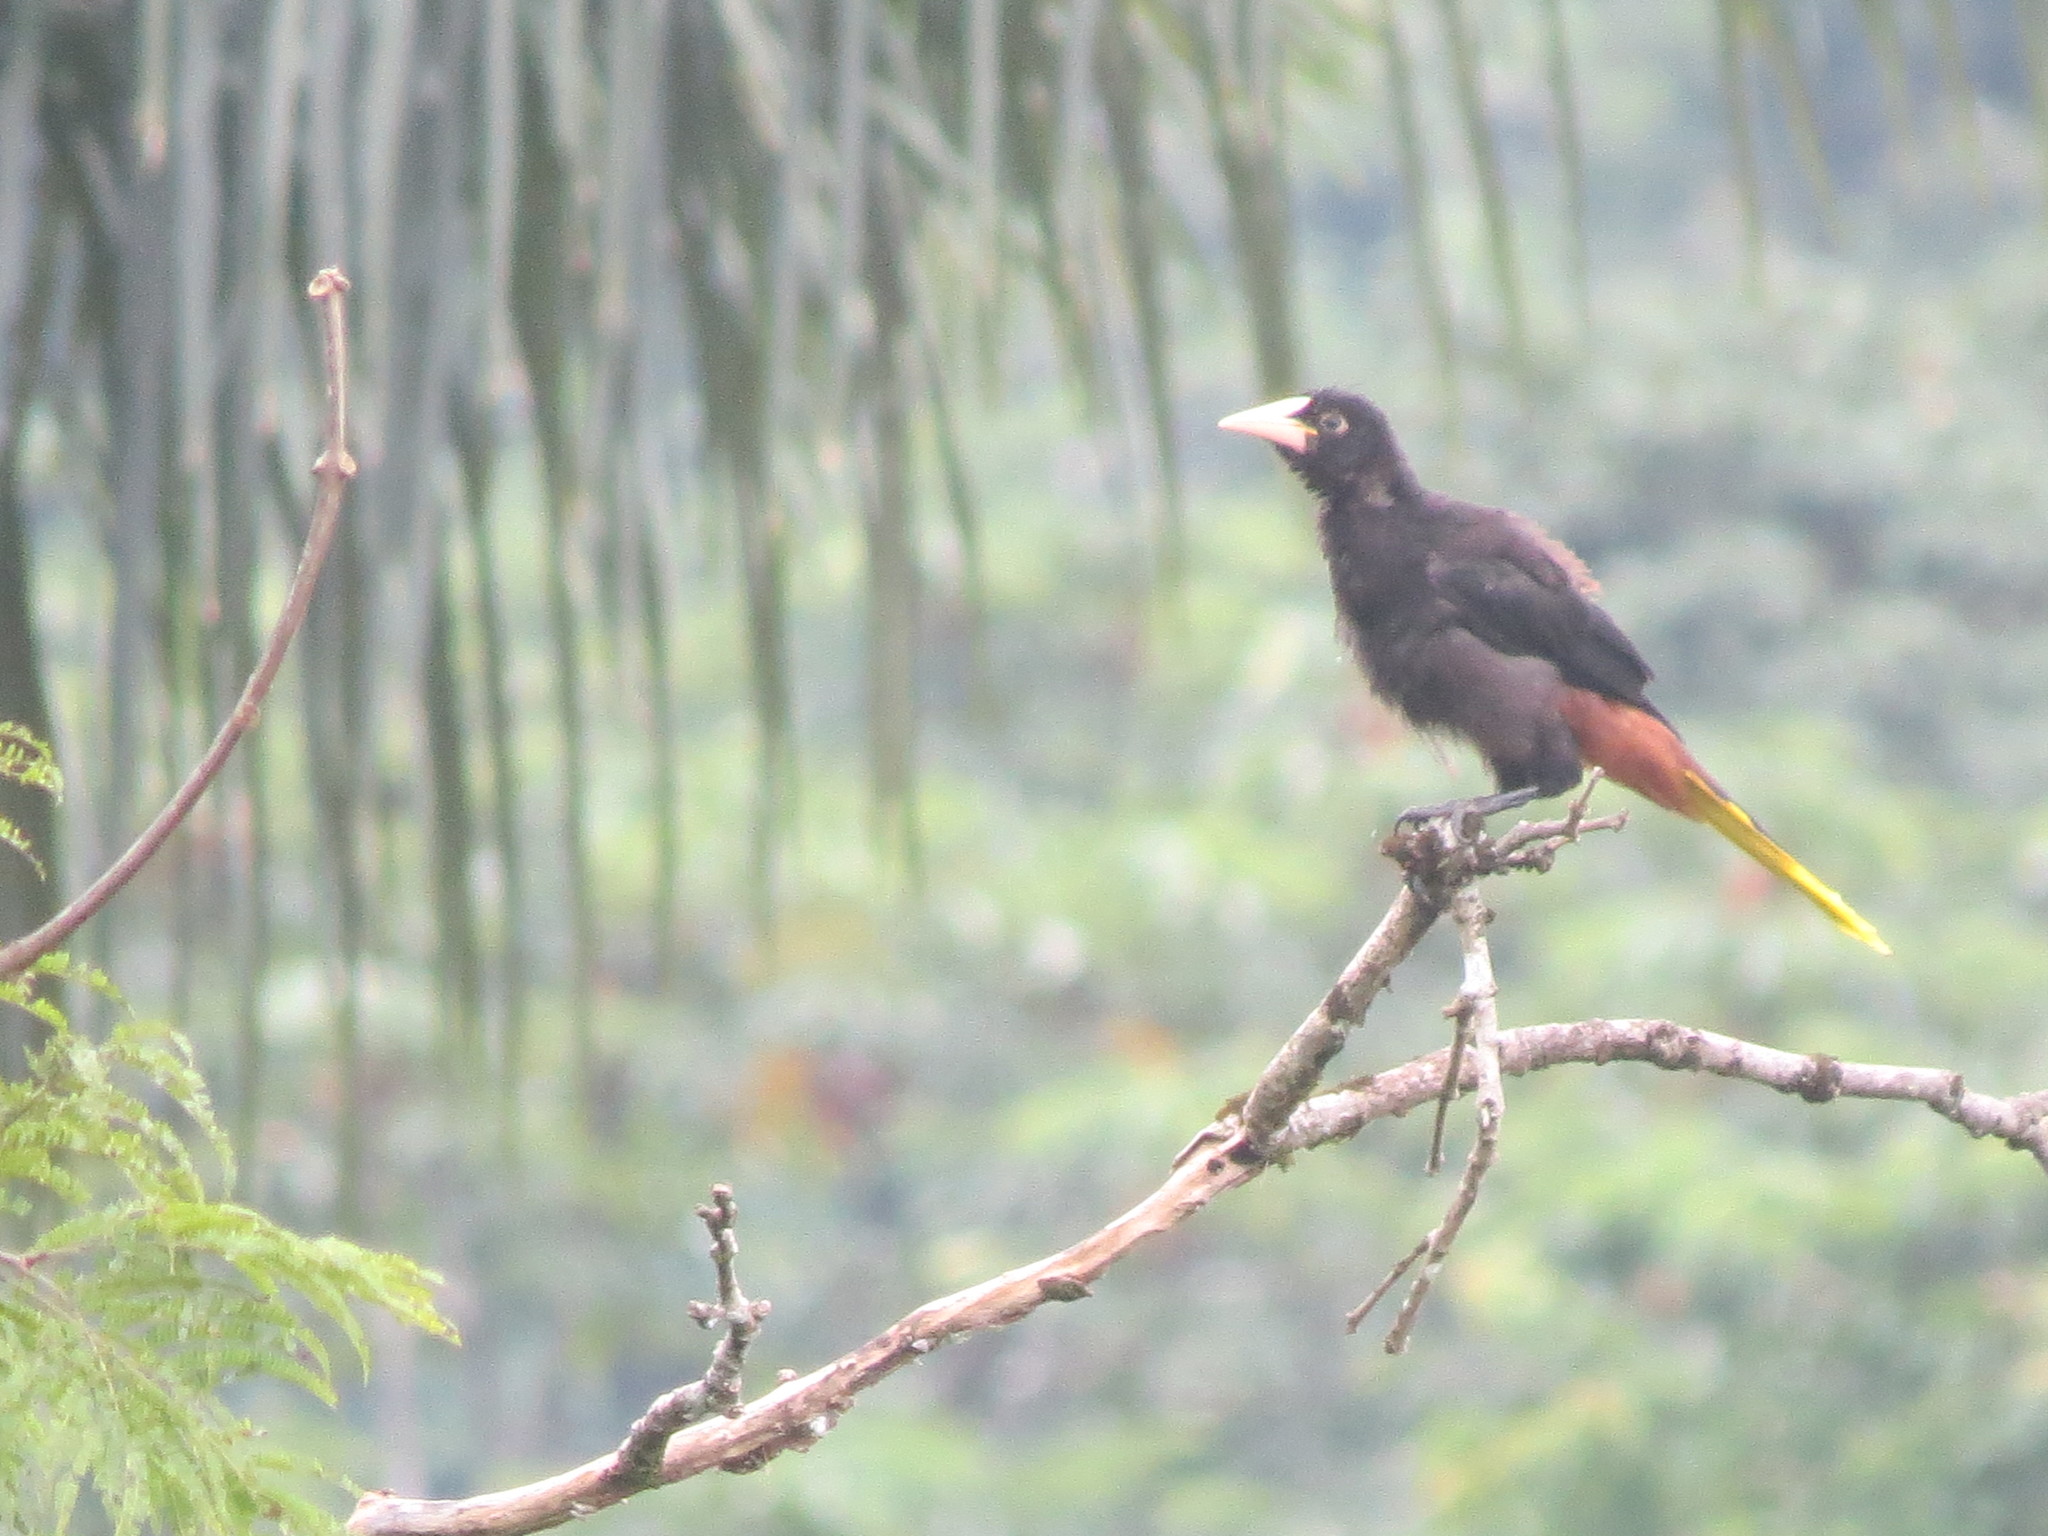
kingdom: Animalia
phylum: Chordata
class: Aves
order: Passeriformes
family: Icteridae
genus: Psarocolius
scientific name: Psarocolius decumanus
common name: Crested oropendola
